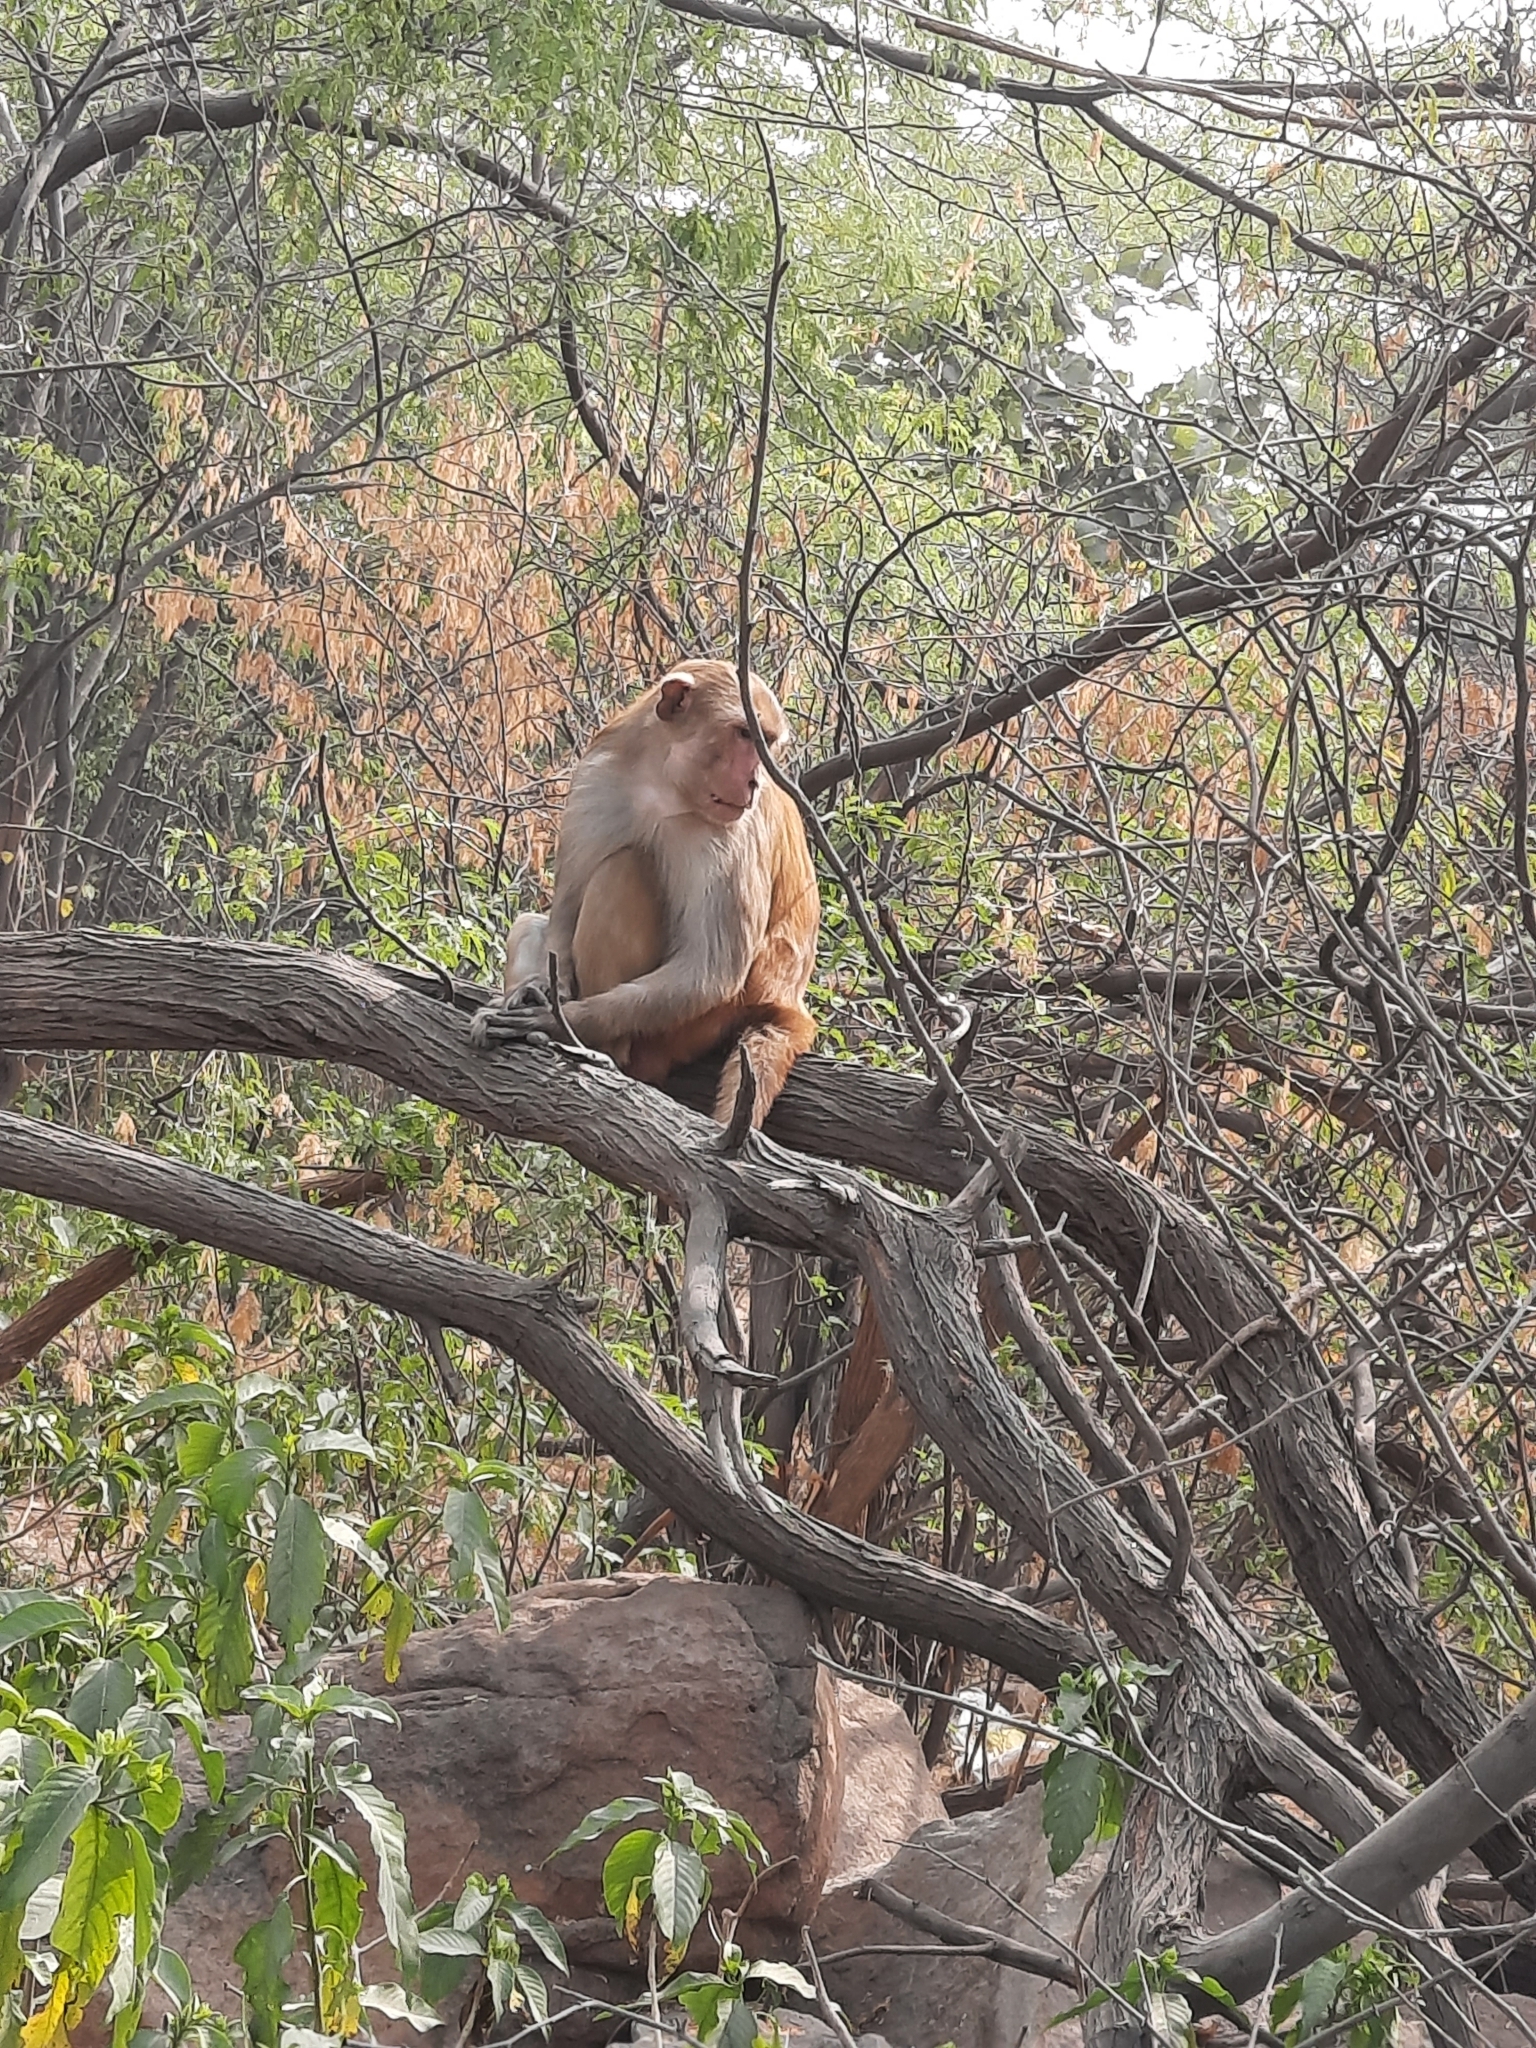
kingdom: Animalia
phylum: Chordata
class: Mammalia
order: Primates
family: Cercopithecidae
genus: Macaca
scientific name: Macaca mulatta
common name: Rhesus monkey
